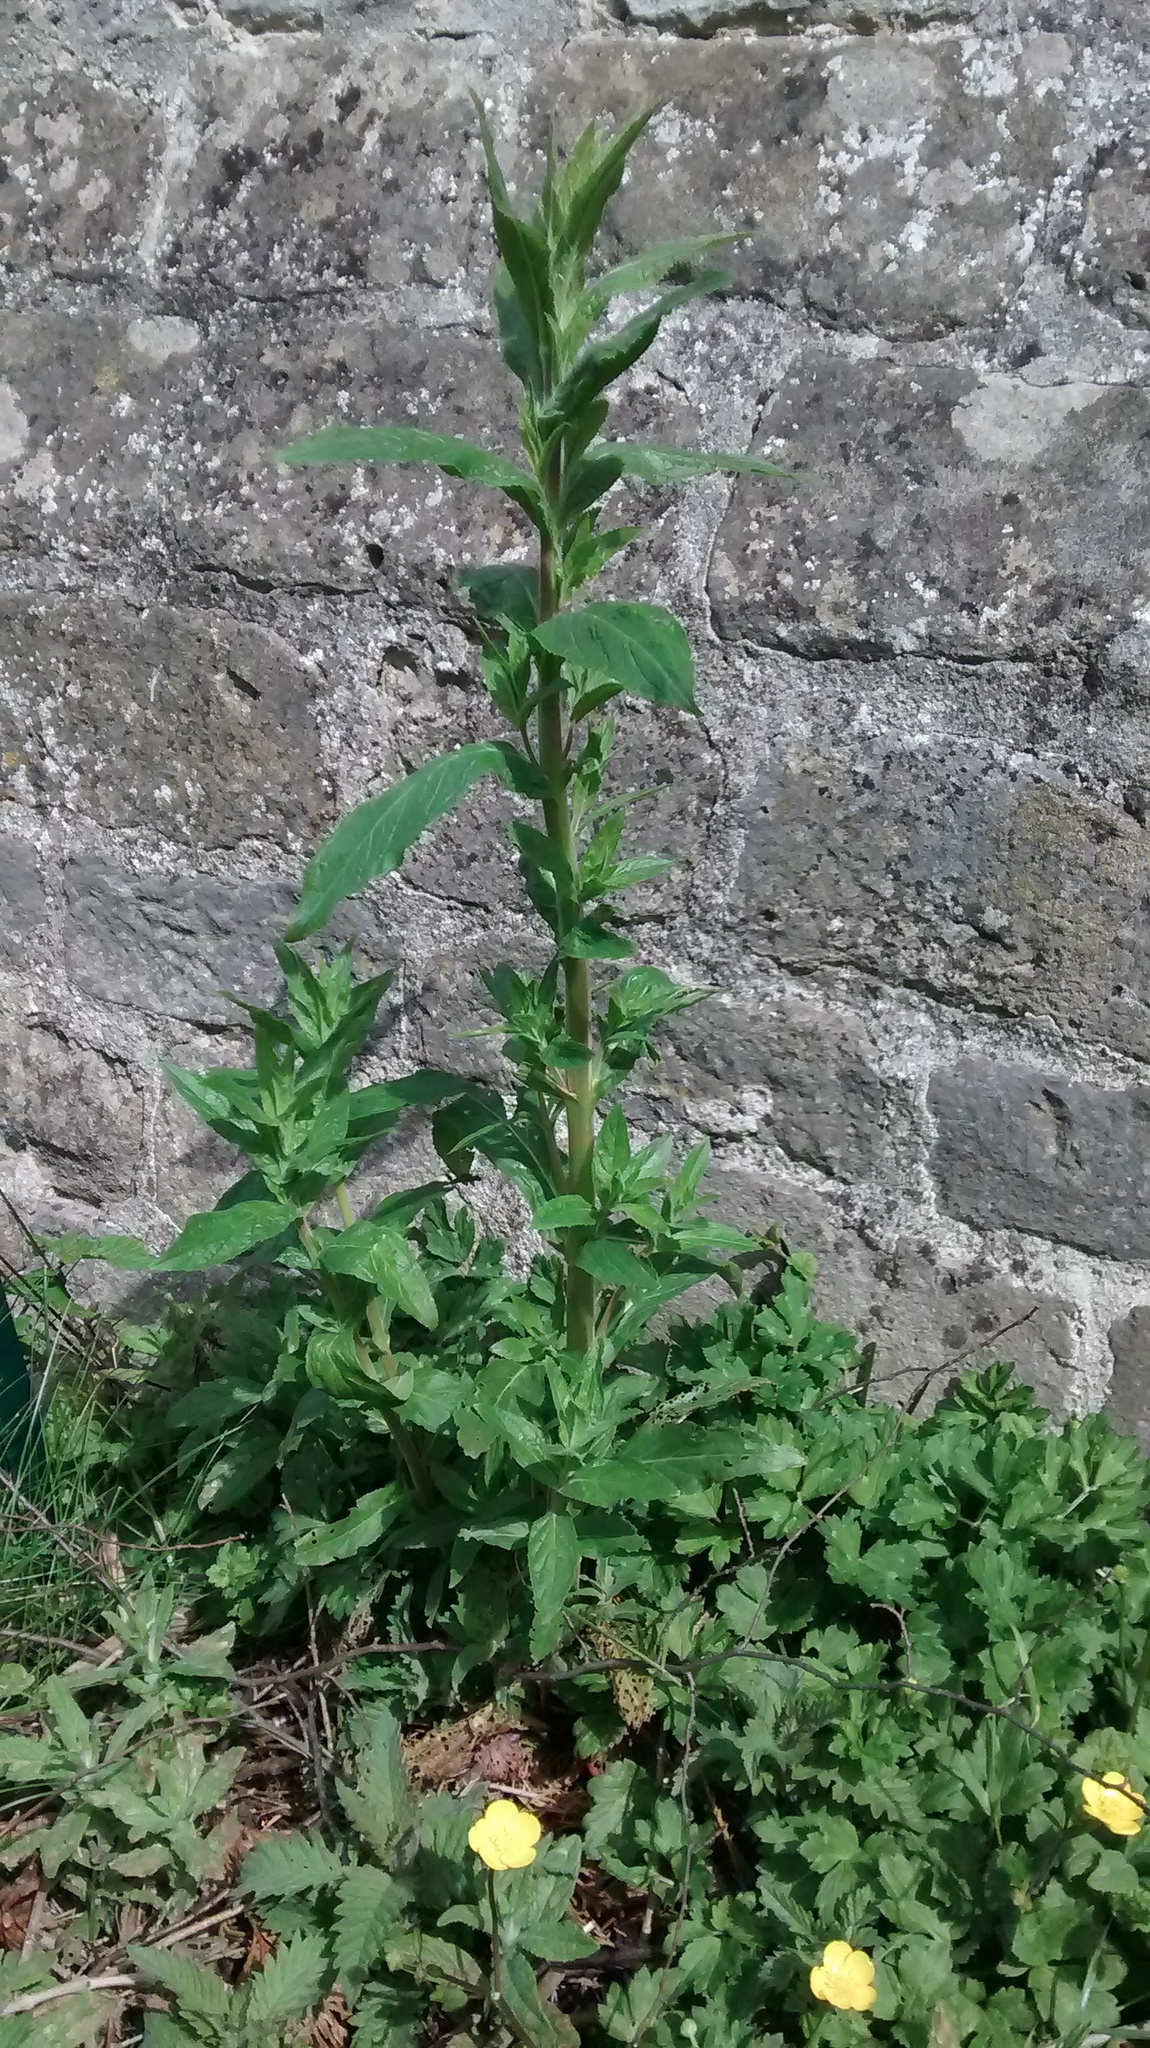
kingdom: Plantae
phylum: Tracheophyta
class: Magnoliopsida
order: Myrtales
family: Onagraceae
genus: Epilobium
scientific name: Epilobium hirsutum
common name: Great willowherb
